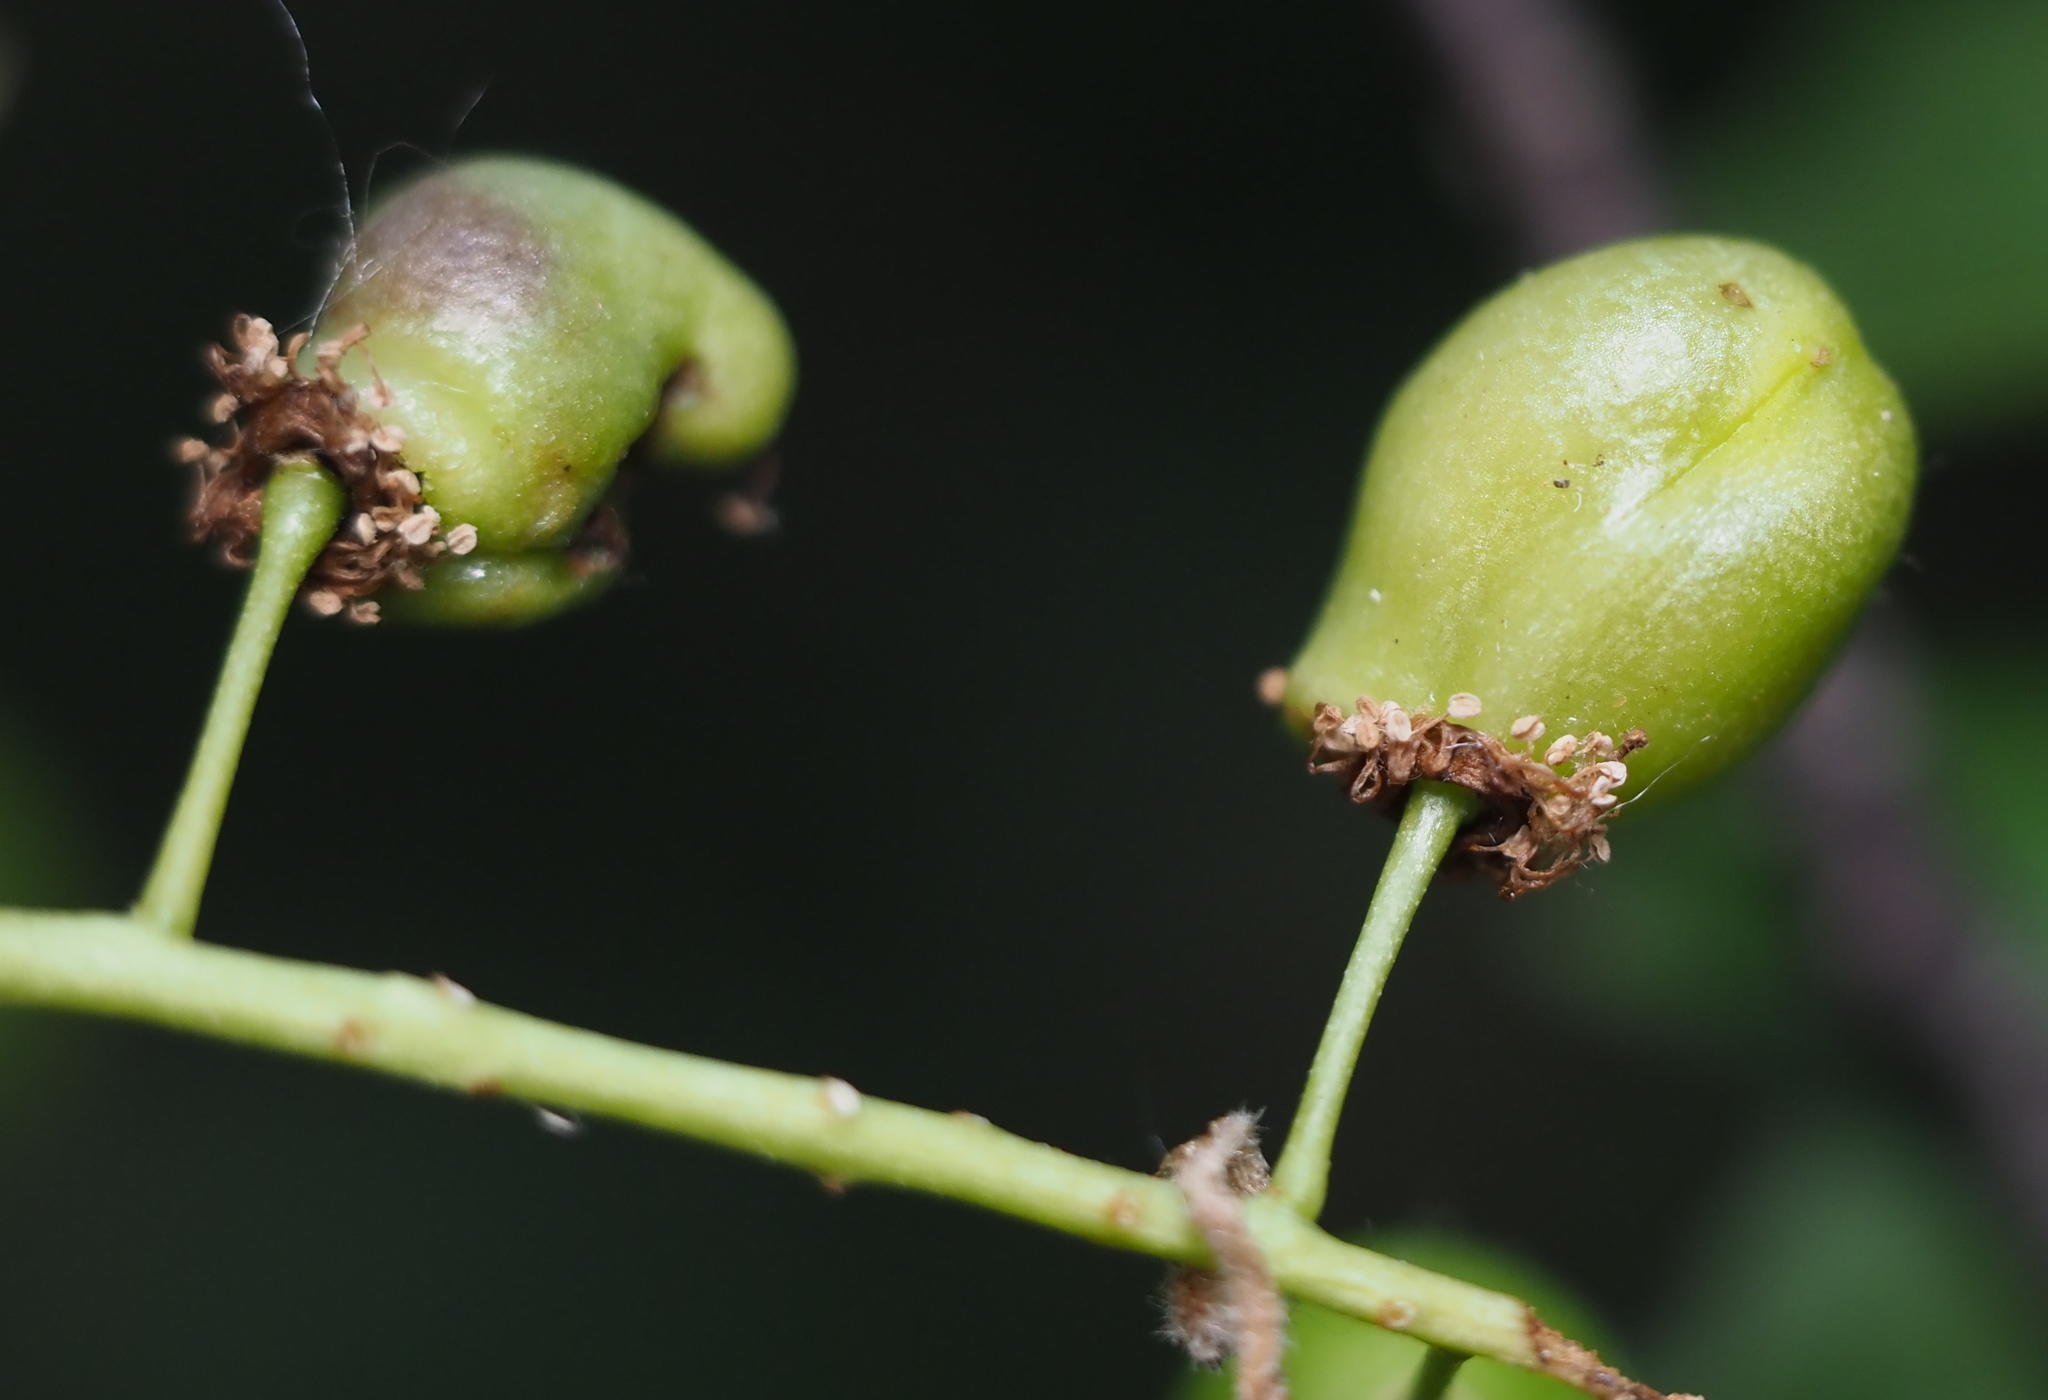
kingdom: Animalia
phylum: Arthropoda
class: Insecta
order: Diptera
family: Cecidomyiidae
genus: Contarinia
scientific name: Contarinia virginianiae
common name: Chokecherry midge
